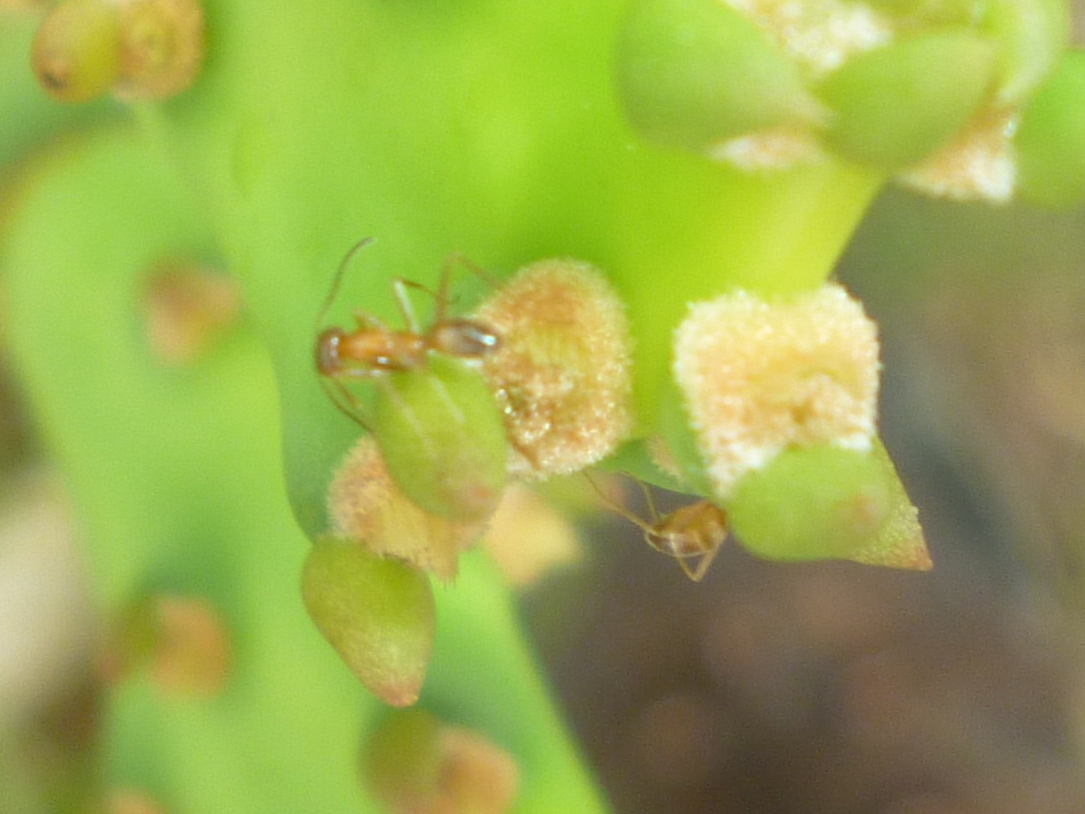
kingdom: Animalia
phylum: Arthropoda
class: Insecta
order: Hymenoptera
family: Formicidae
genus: Dorymyrmex
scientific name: Dorymyrmex bureni
